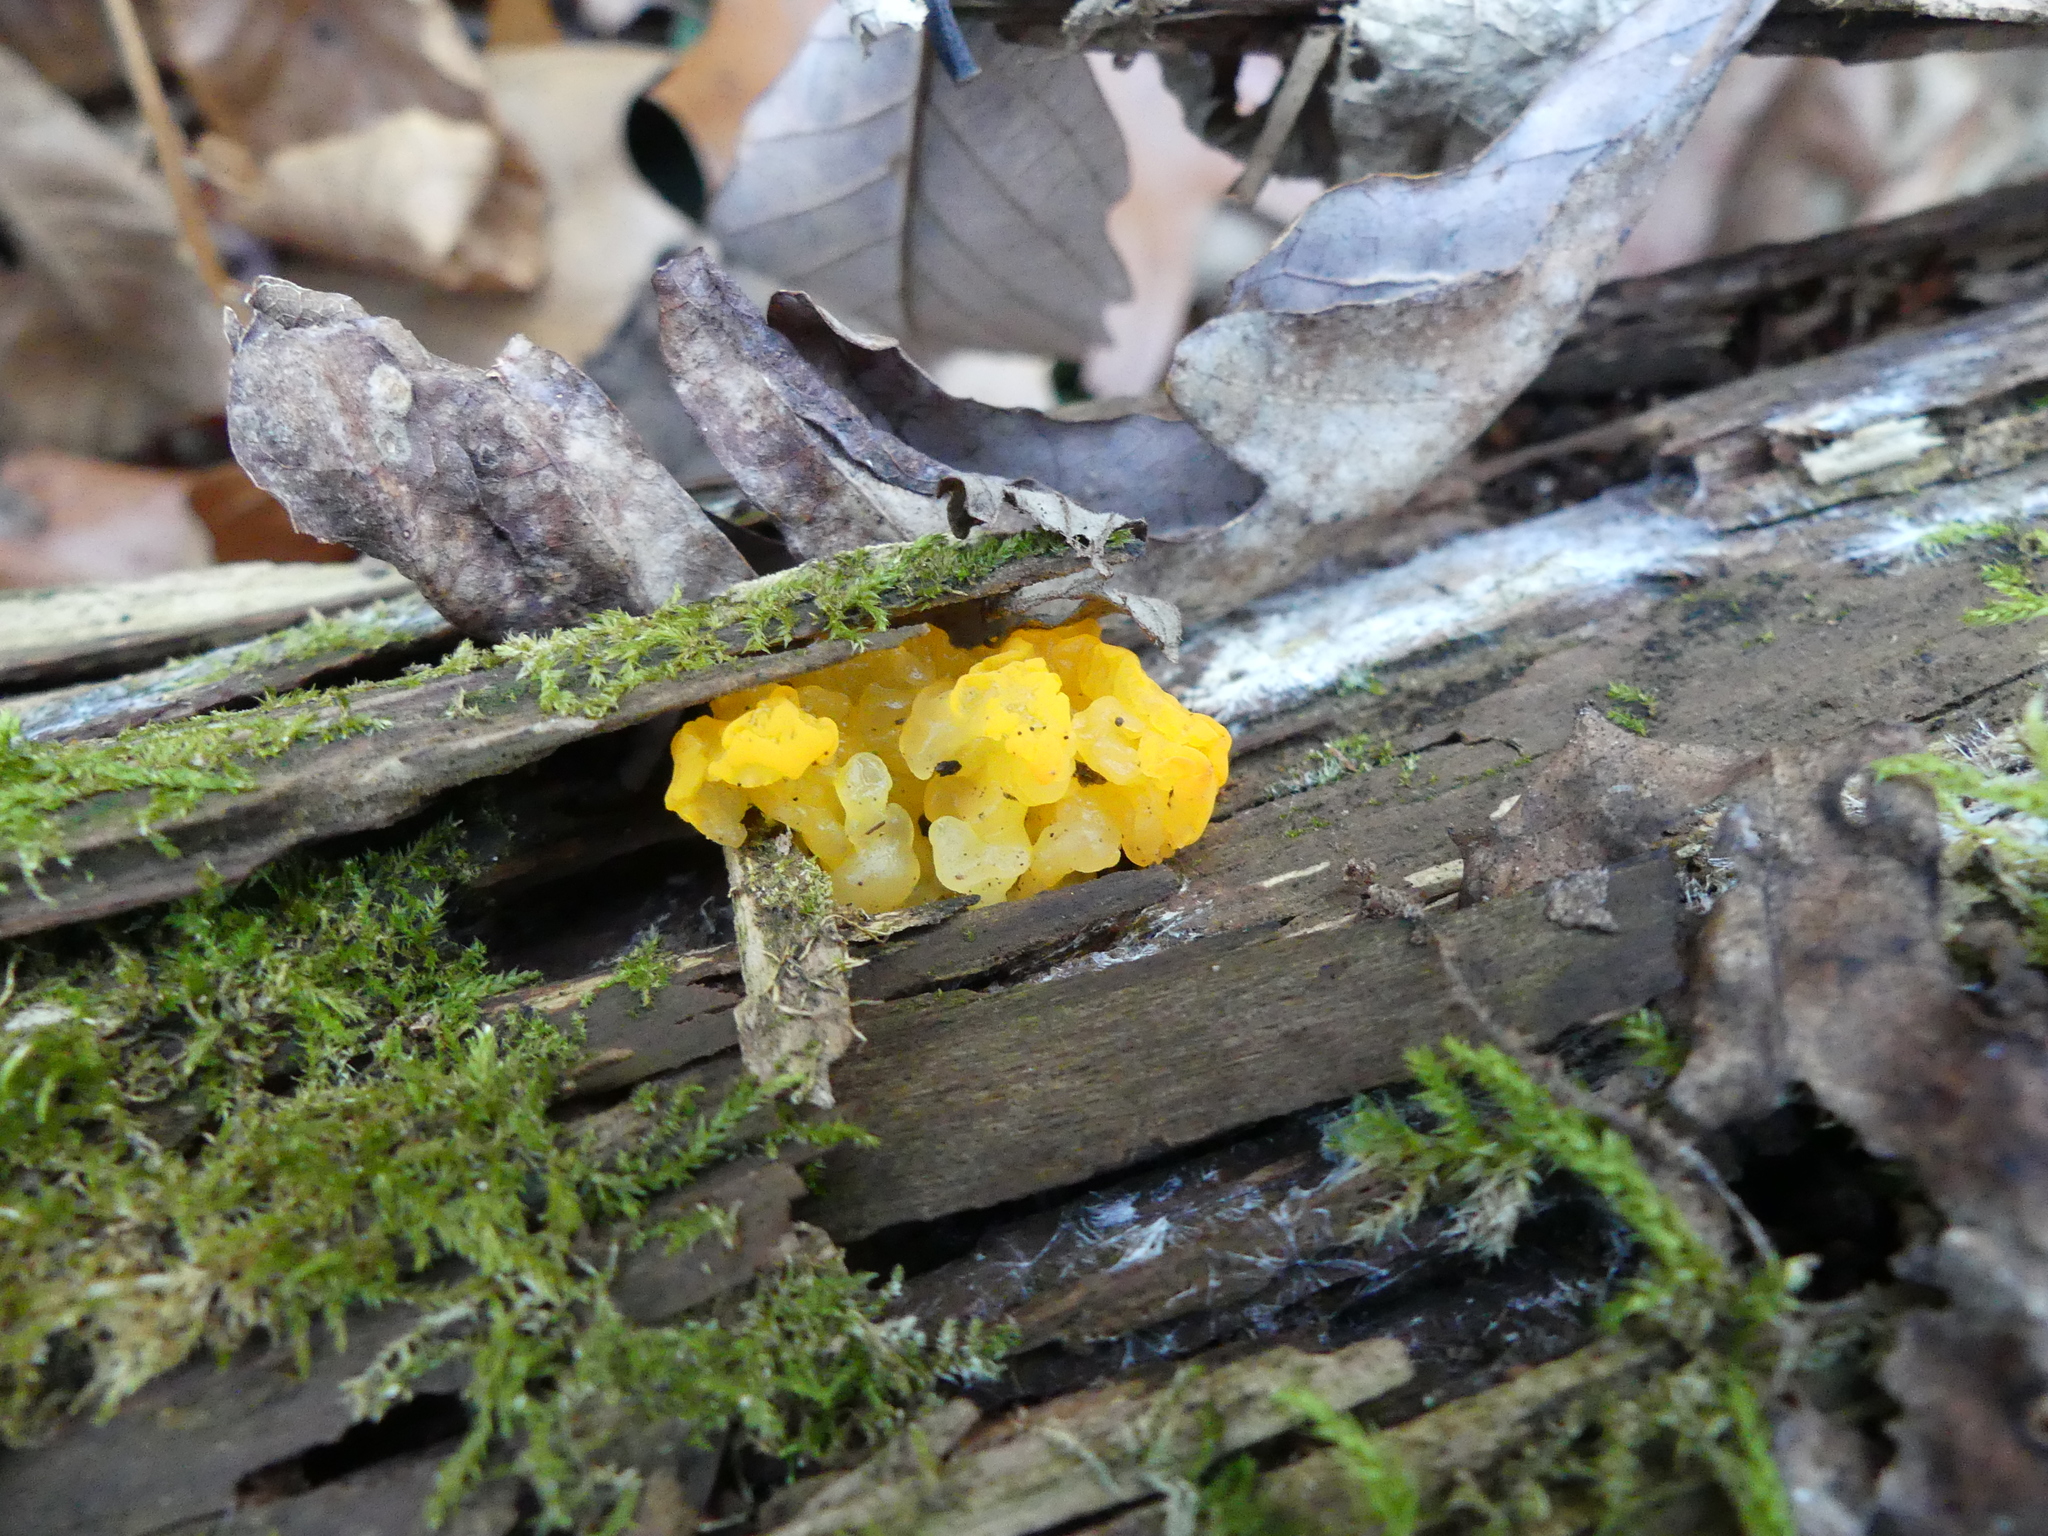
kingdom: Fungi
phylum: Basidiomycota
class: Tremellomycetes
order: Tremellales
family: Tremellaceae
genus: Tremella
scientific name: Tremella mesenterica
